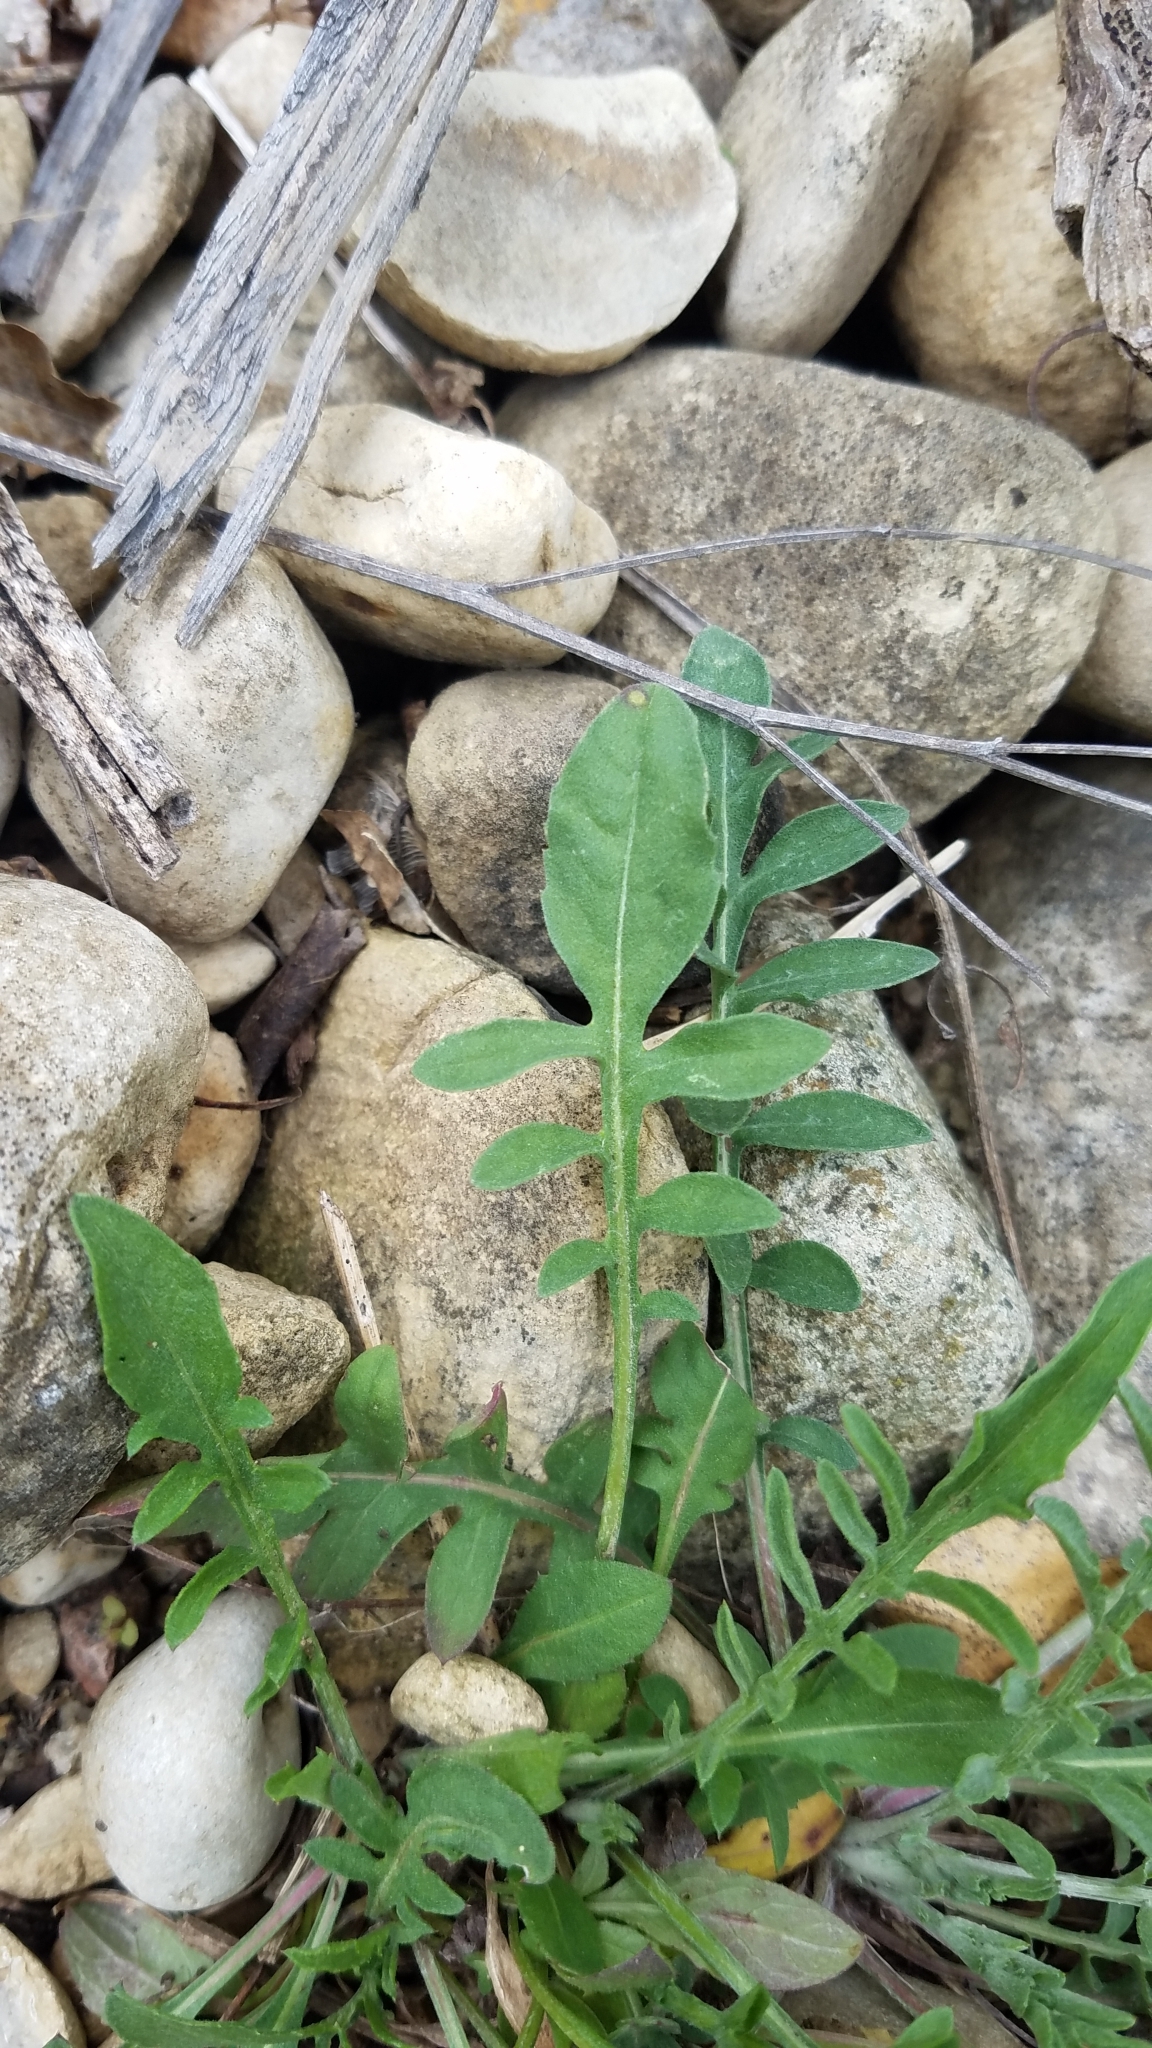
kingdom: Plantae
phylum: Tracheophyta
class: Magnoliopsida
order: Asterales
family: Asteraceae
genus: Centaurea
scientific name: Centaurea stoebe
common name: Spotted knapweed
